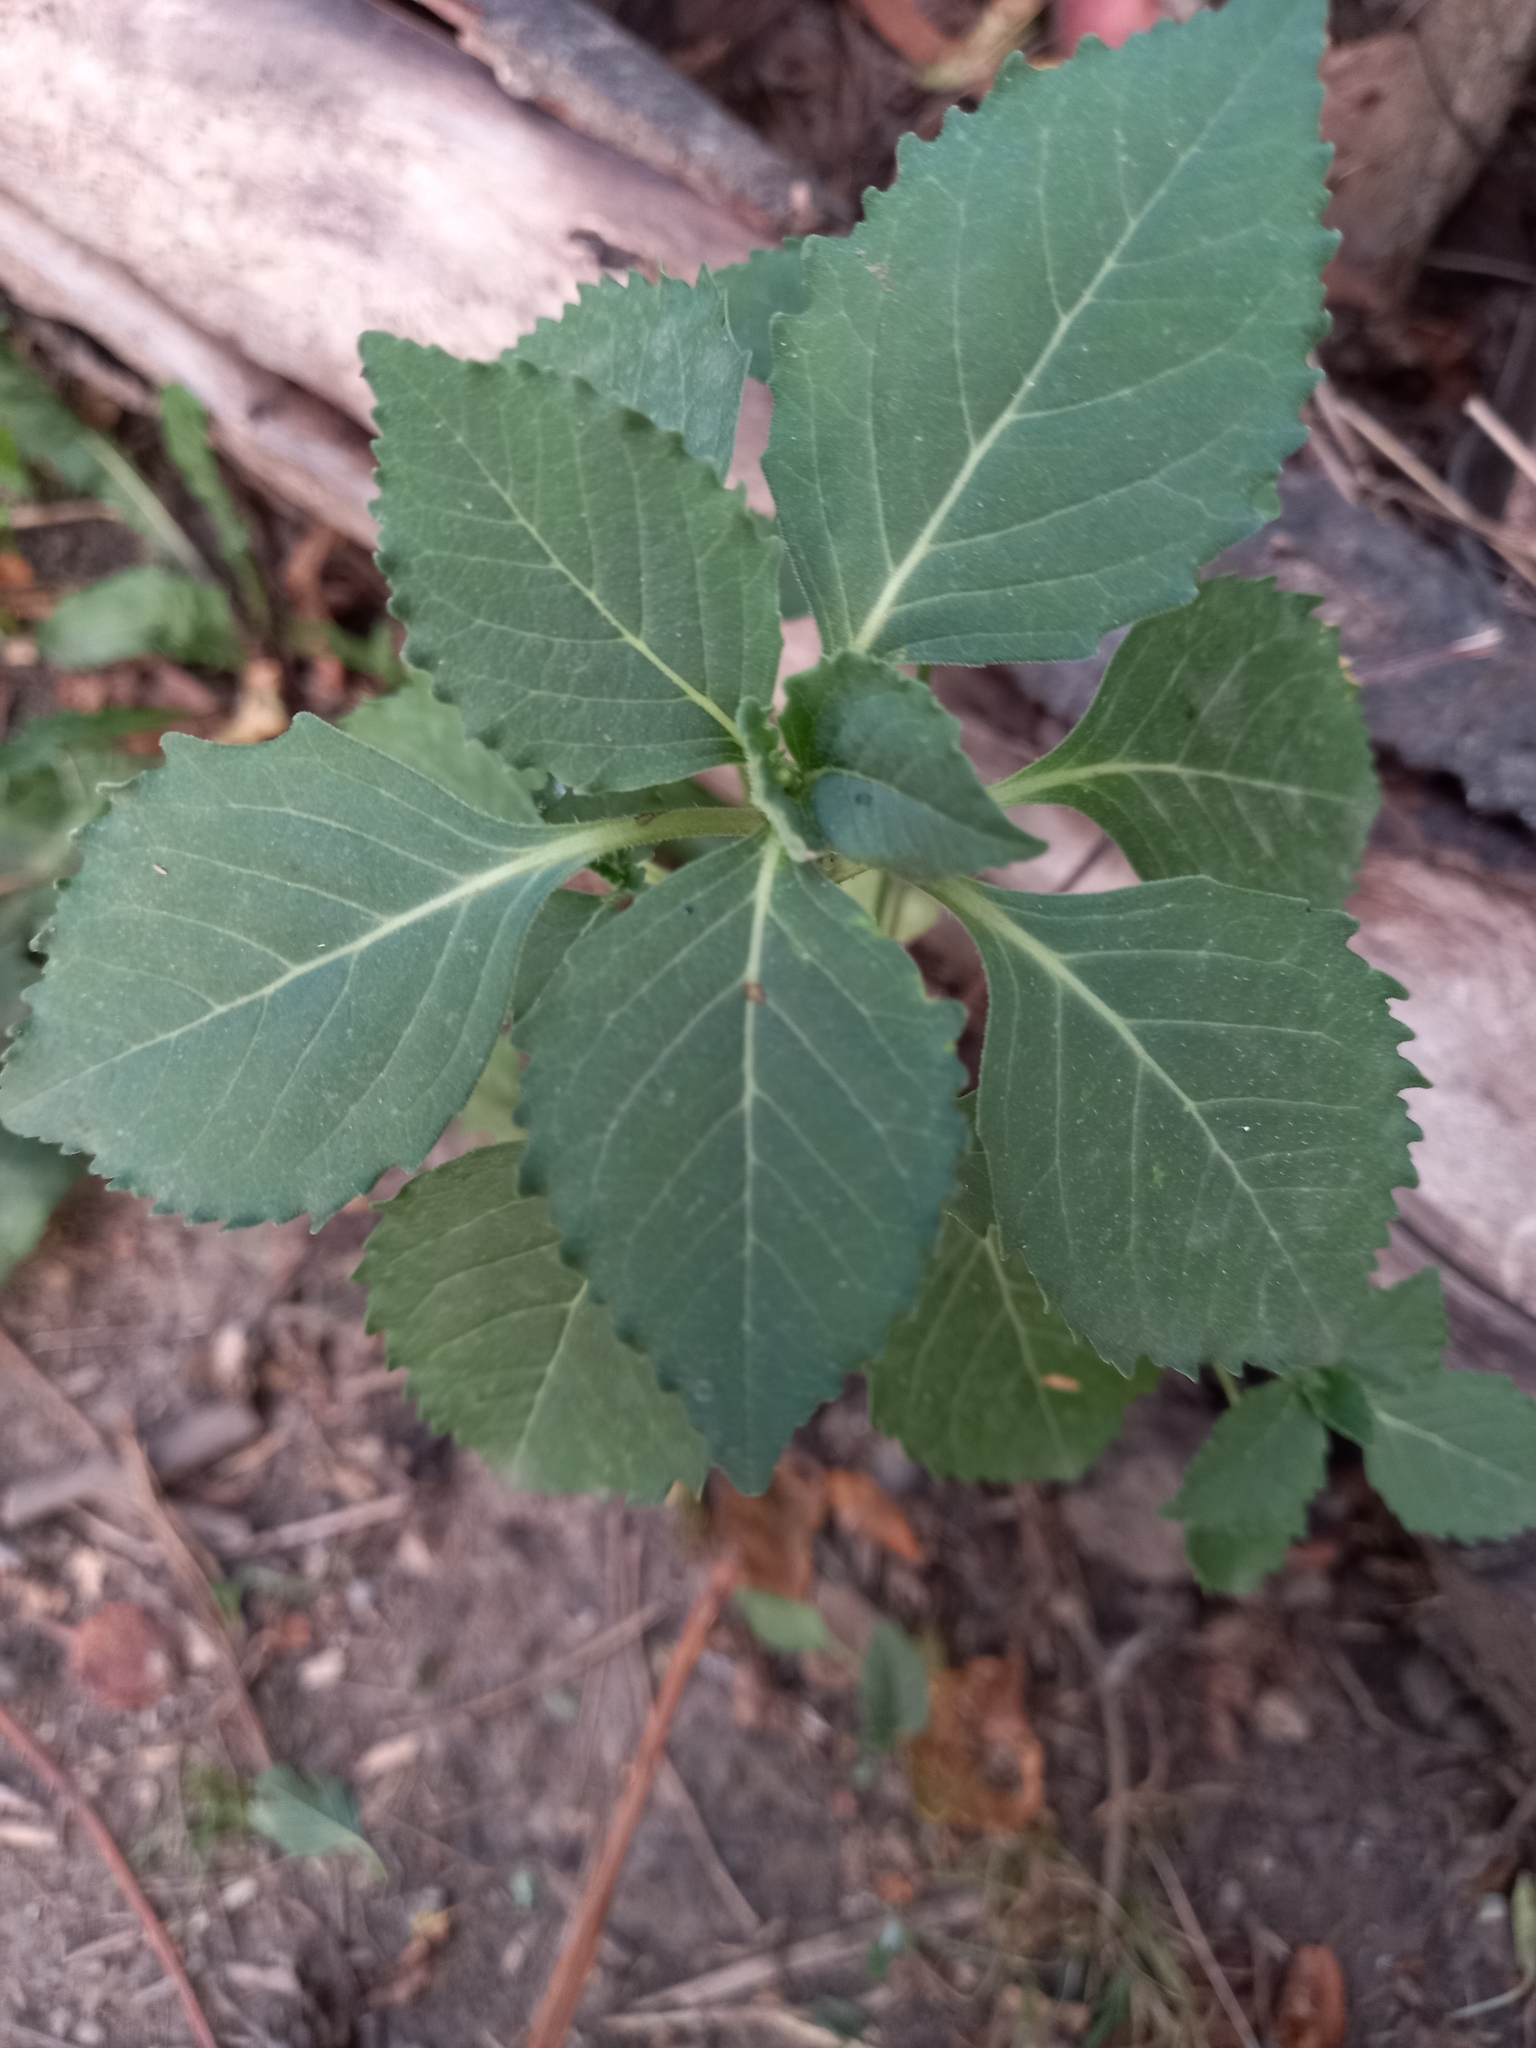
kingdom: Plantae
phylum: Tracheophyta
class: Magnoliopsida
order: Malpighiales
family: Euphorbiaceae
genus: Euphorbia
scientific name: Euphorbia davidii
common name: David's spurge
